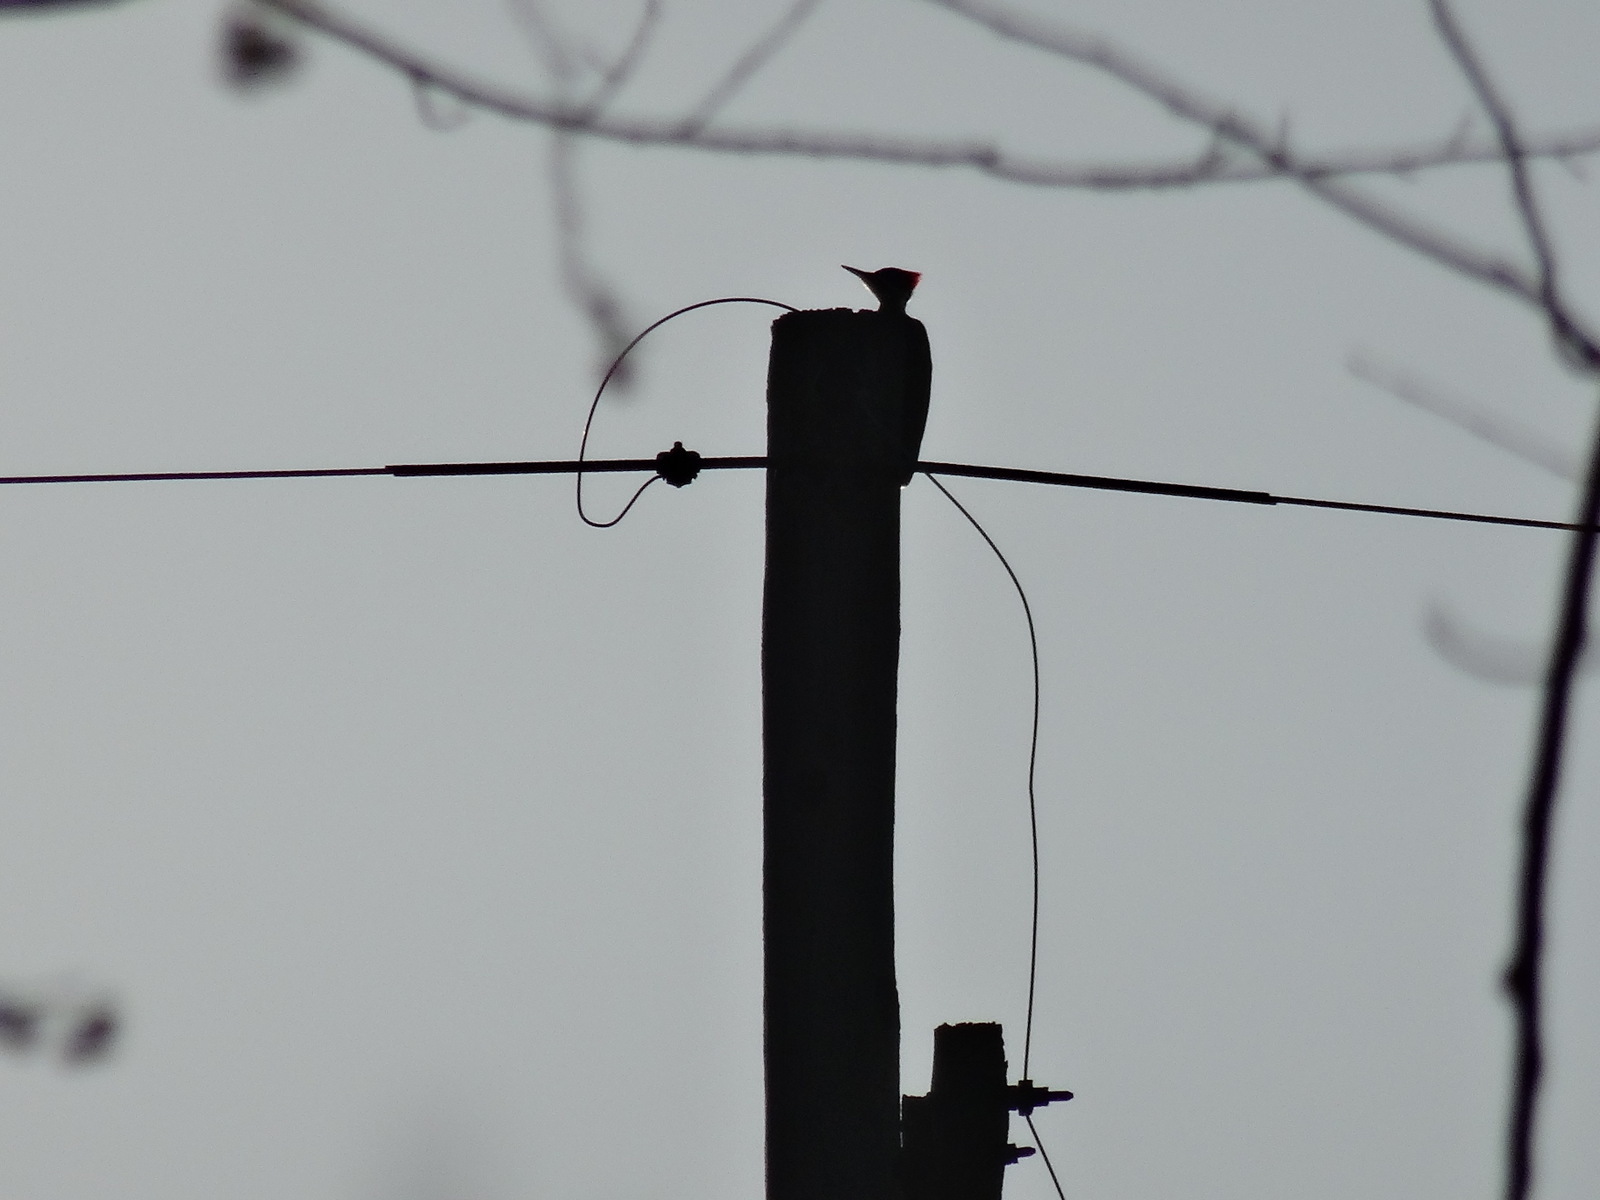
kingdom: Animalia
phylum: Chordata
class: Aves
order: Piciformes
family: Picidae
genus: Dryocopus
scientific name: Dryocopus pileatus
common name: Pileated woodpecker
